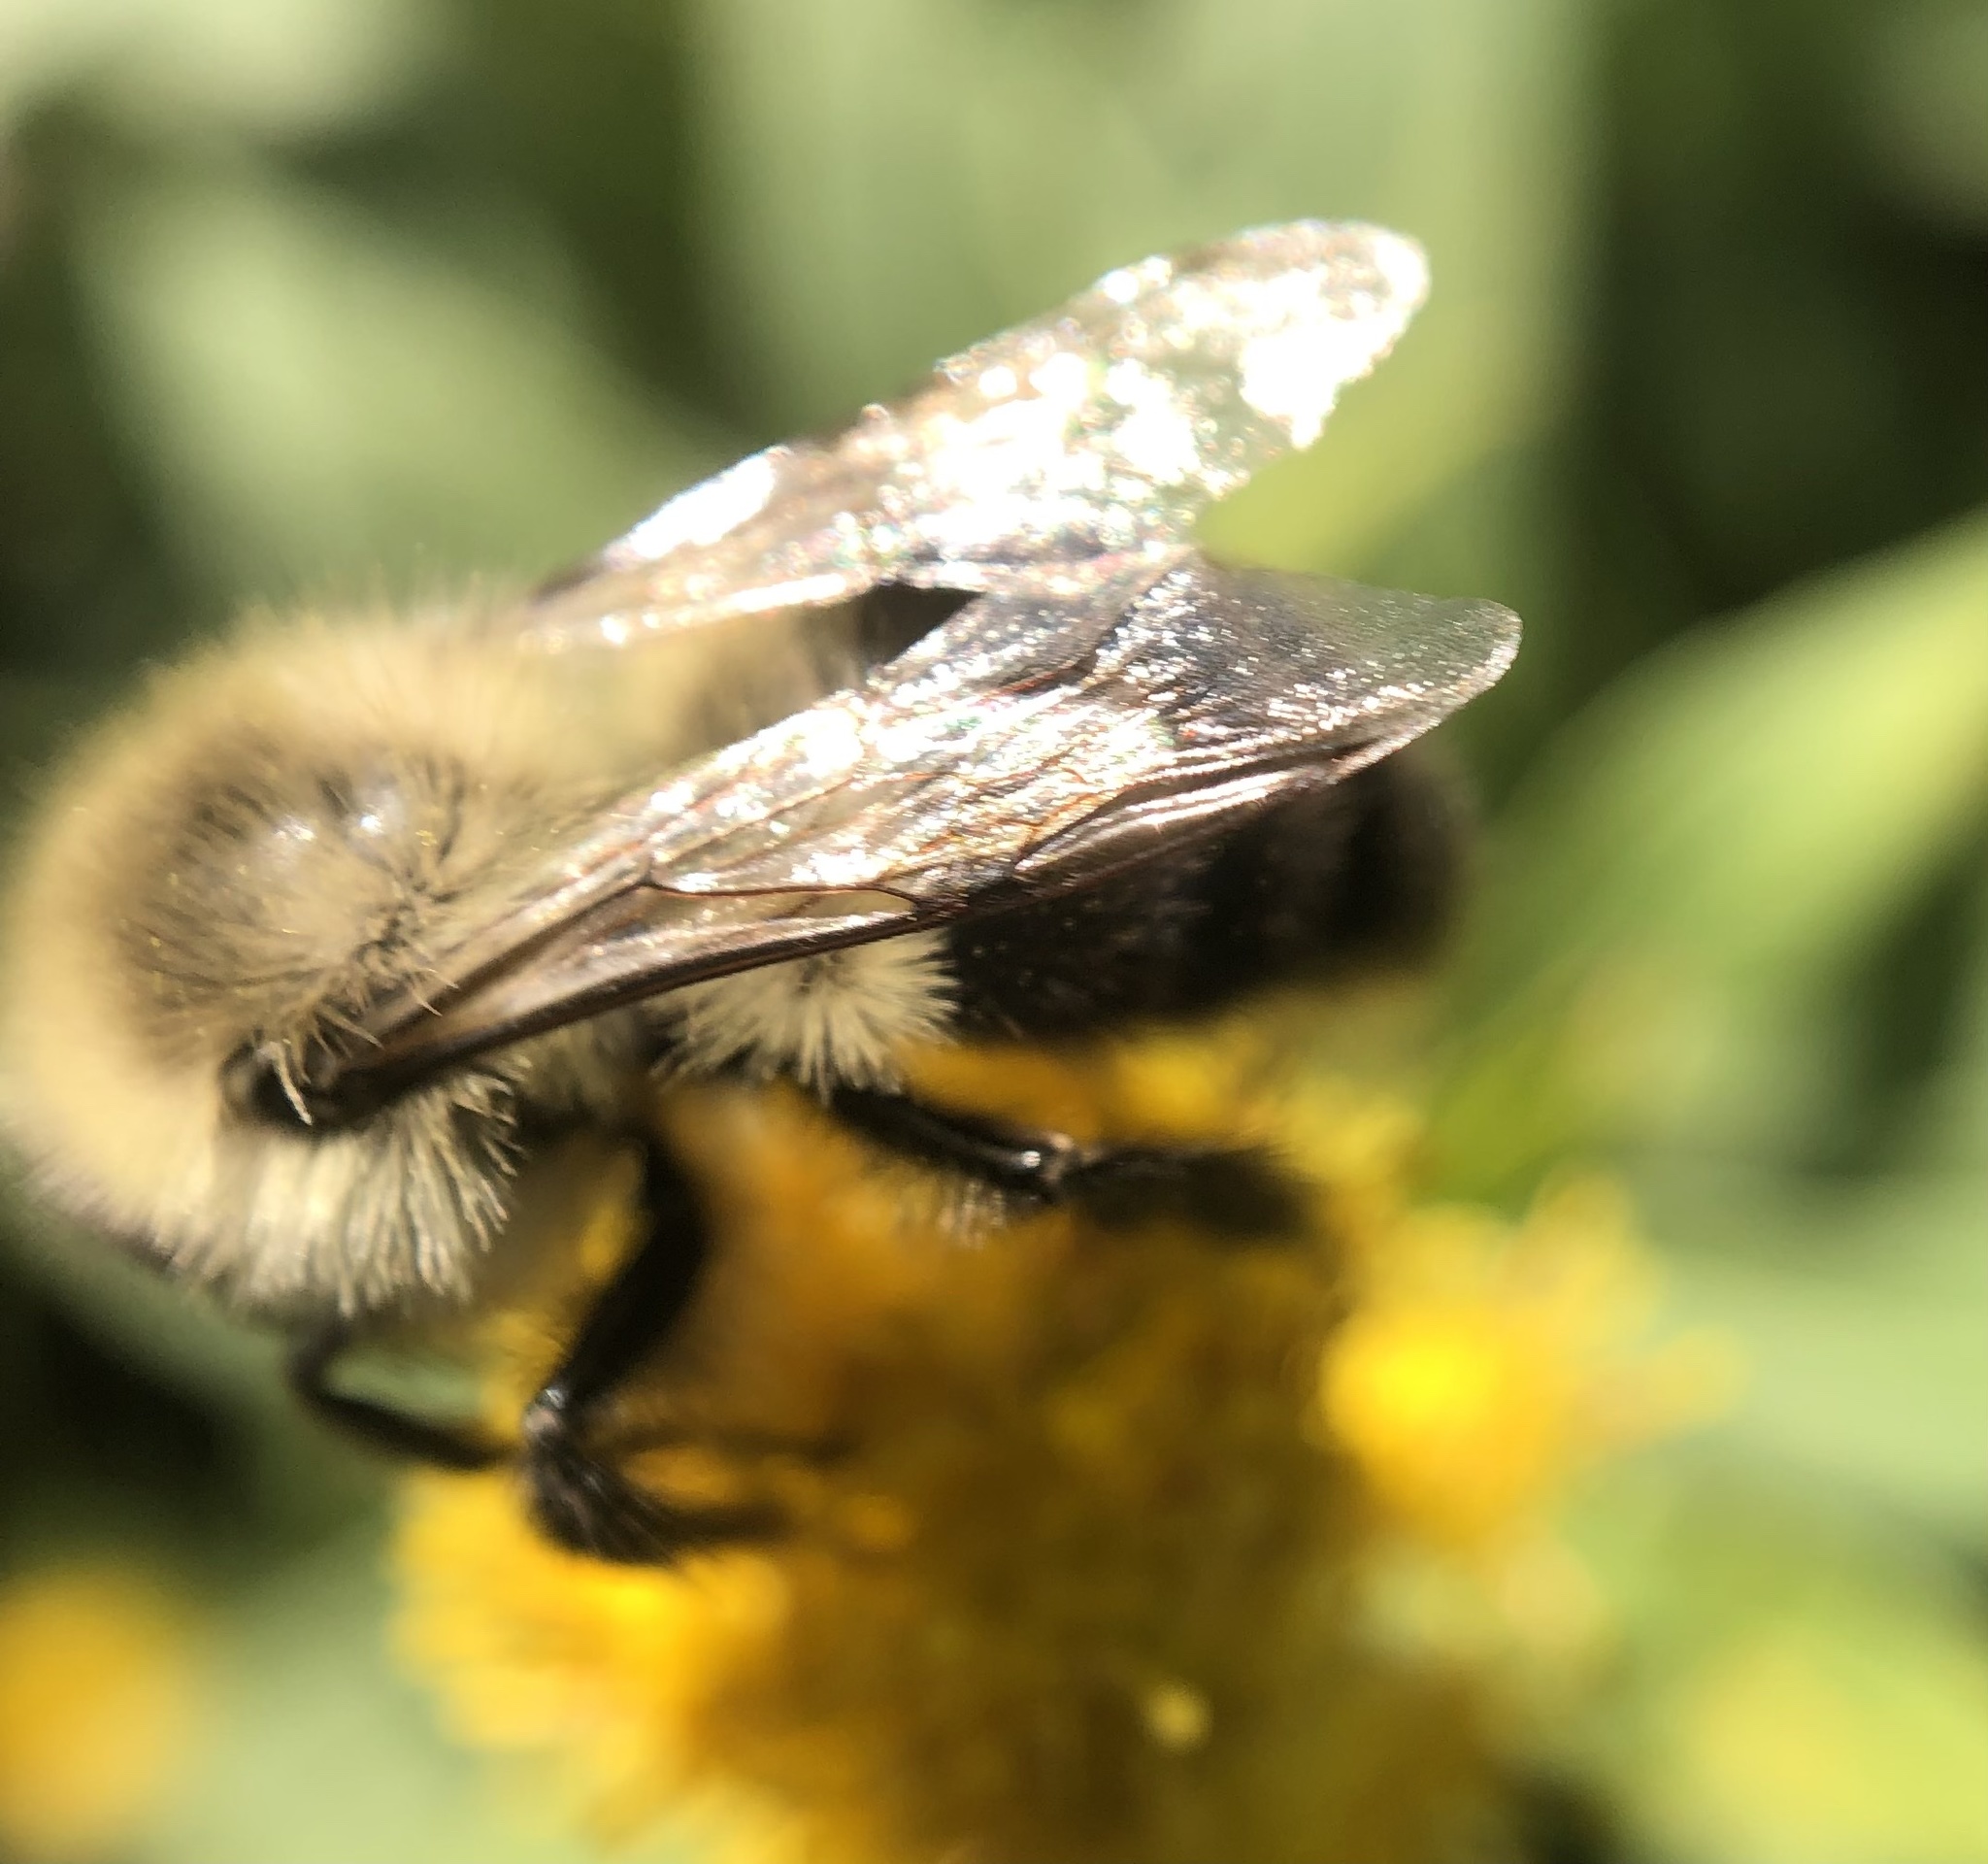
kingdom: Animalia
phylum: Arthropoda
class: Insecta
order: Hymenoptera
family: Apidae
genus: Bombus
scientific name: Bombus impatiens
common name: Common eastern bumble bee
